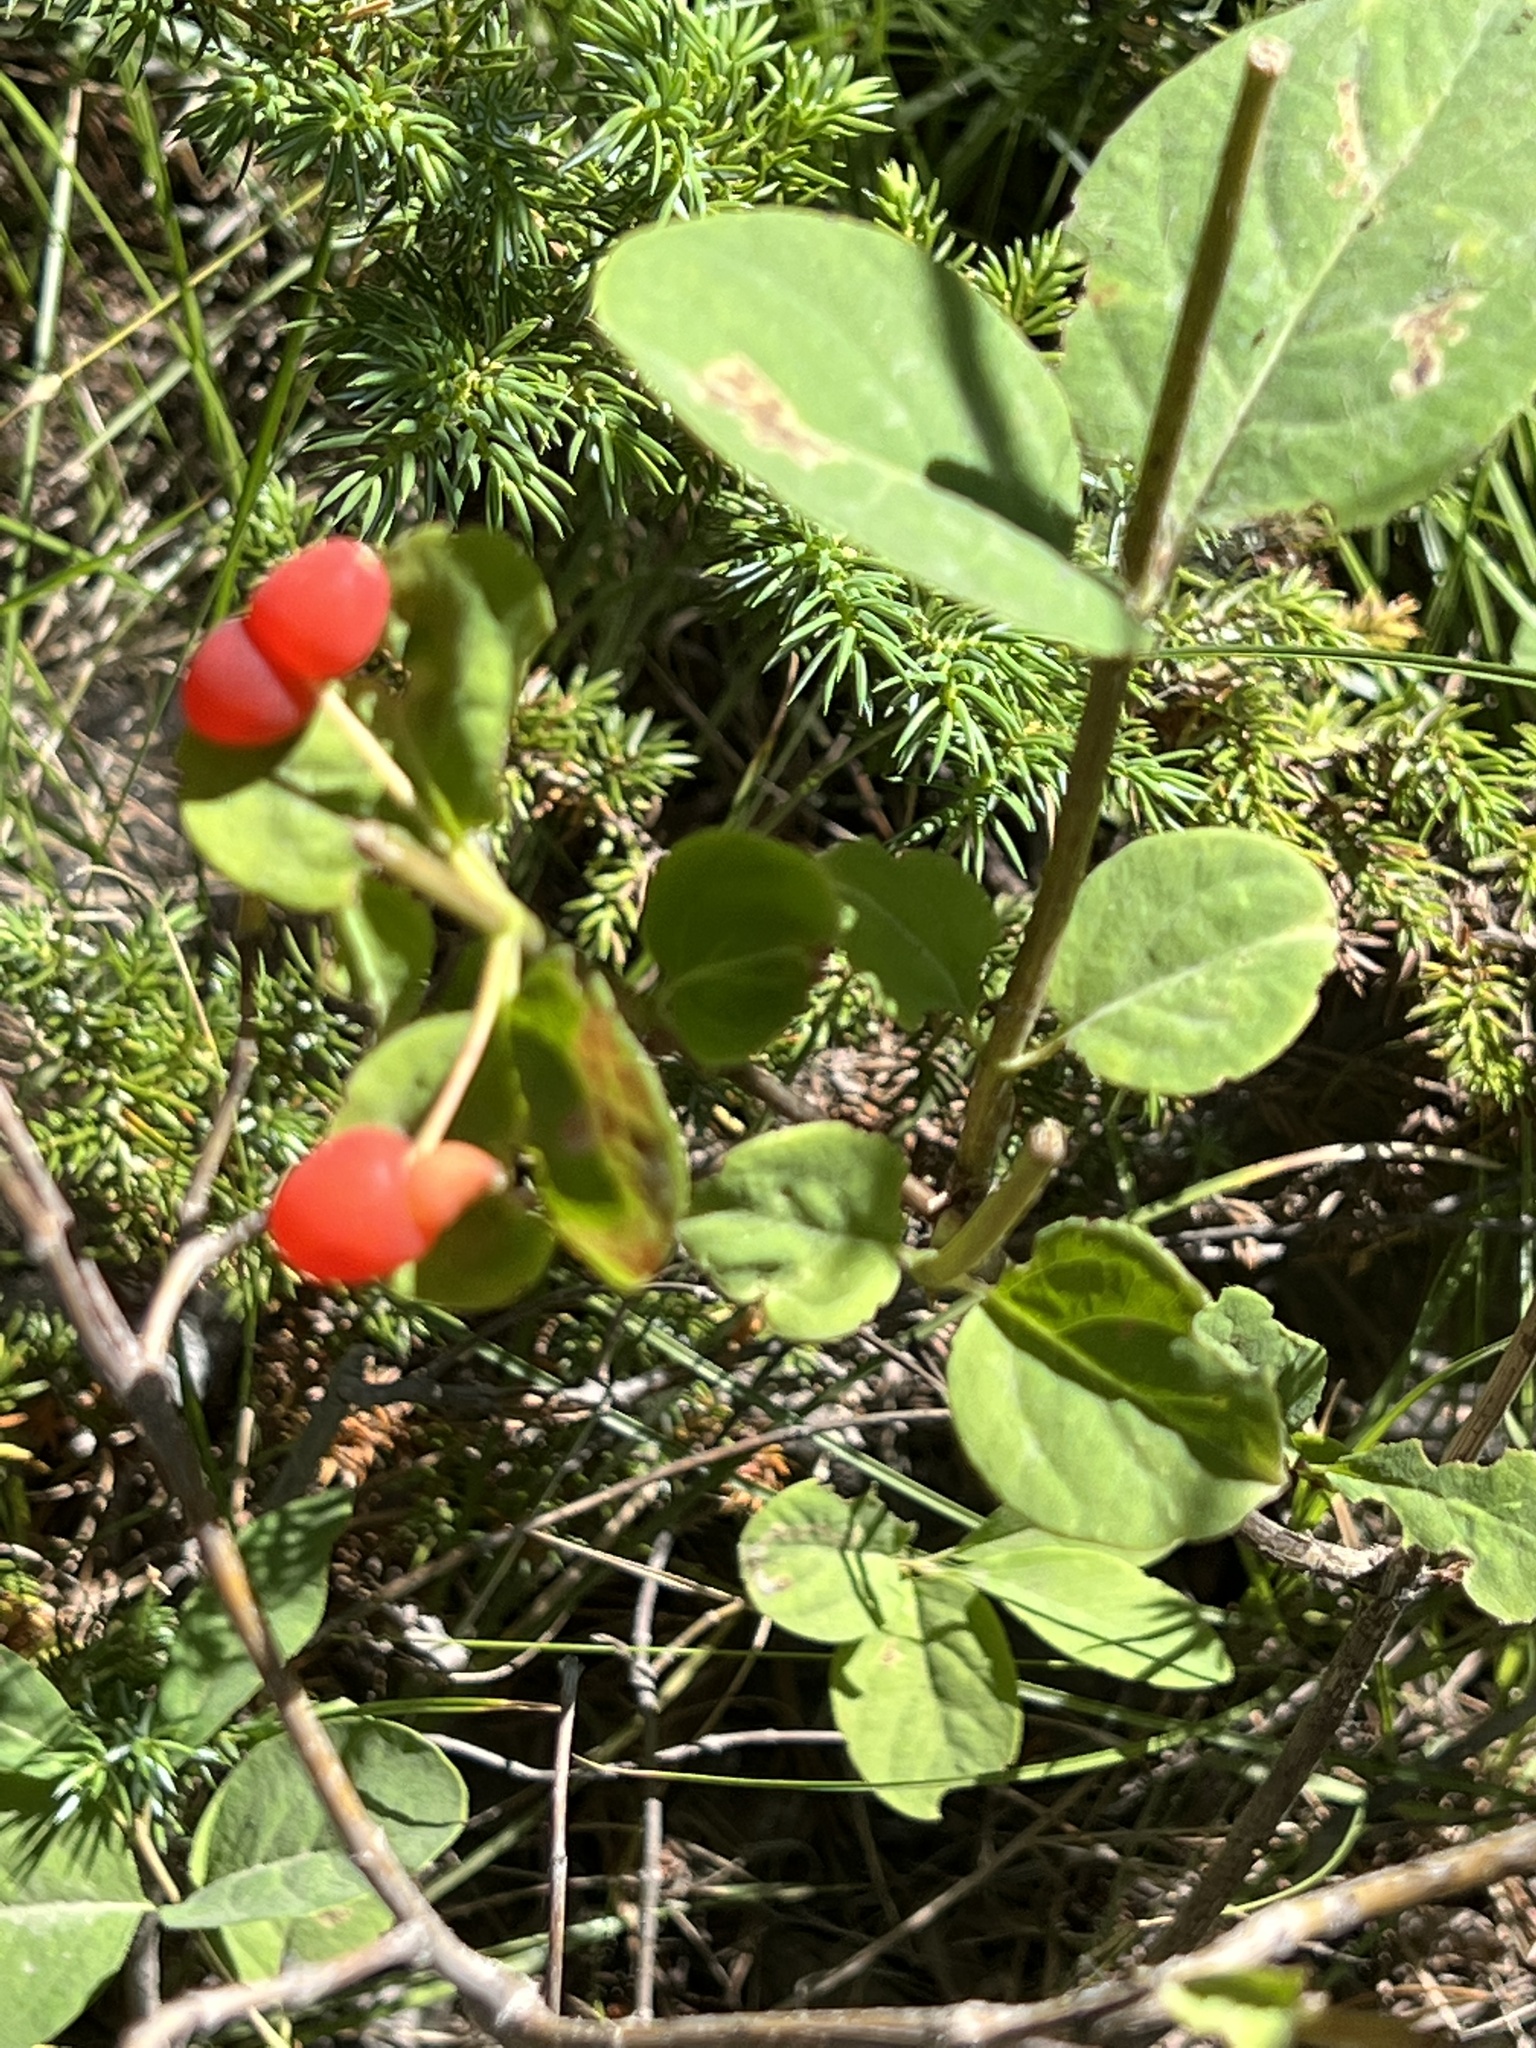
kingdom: Plantae
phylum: Tracheophyta
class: Magnoliopsida
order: Dipsacales
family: Caprifoliaceae
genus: Lonicera
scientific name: Lonicera utahensis
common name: Utah honeysuckle
